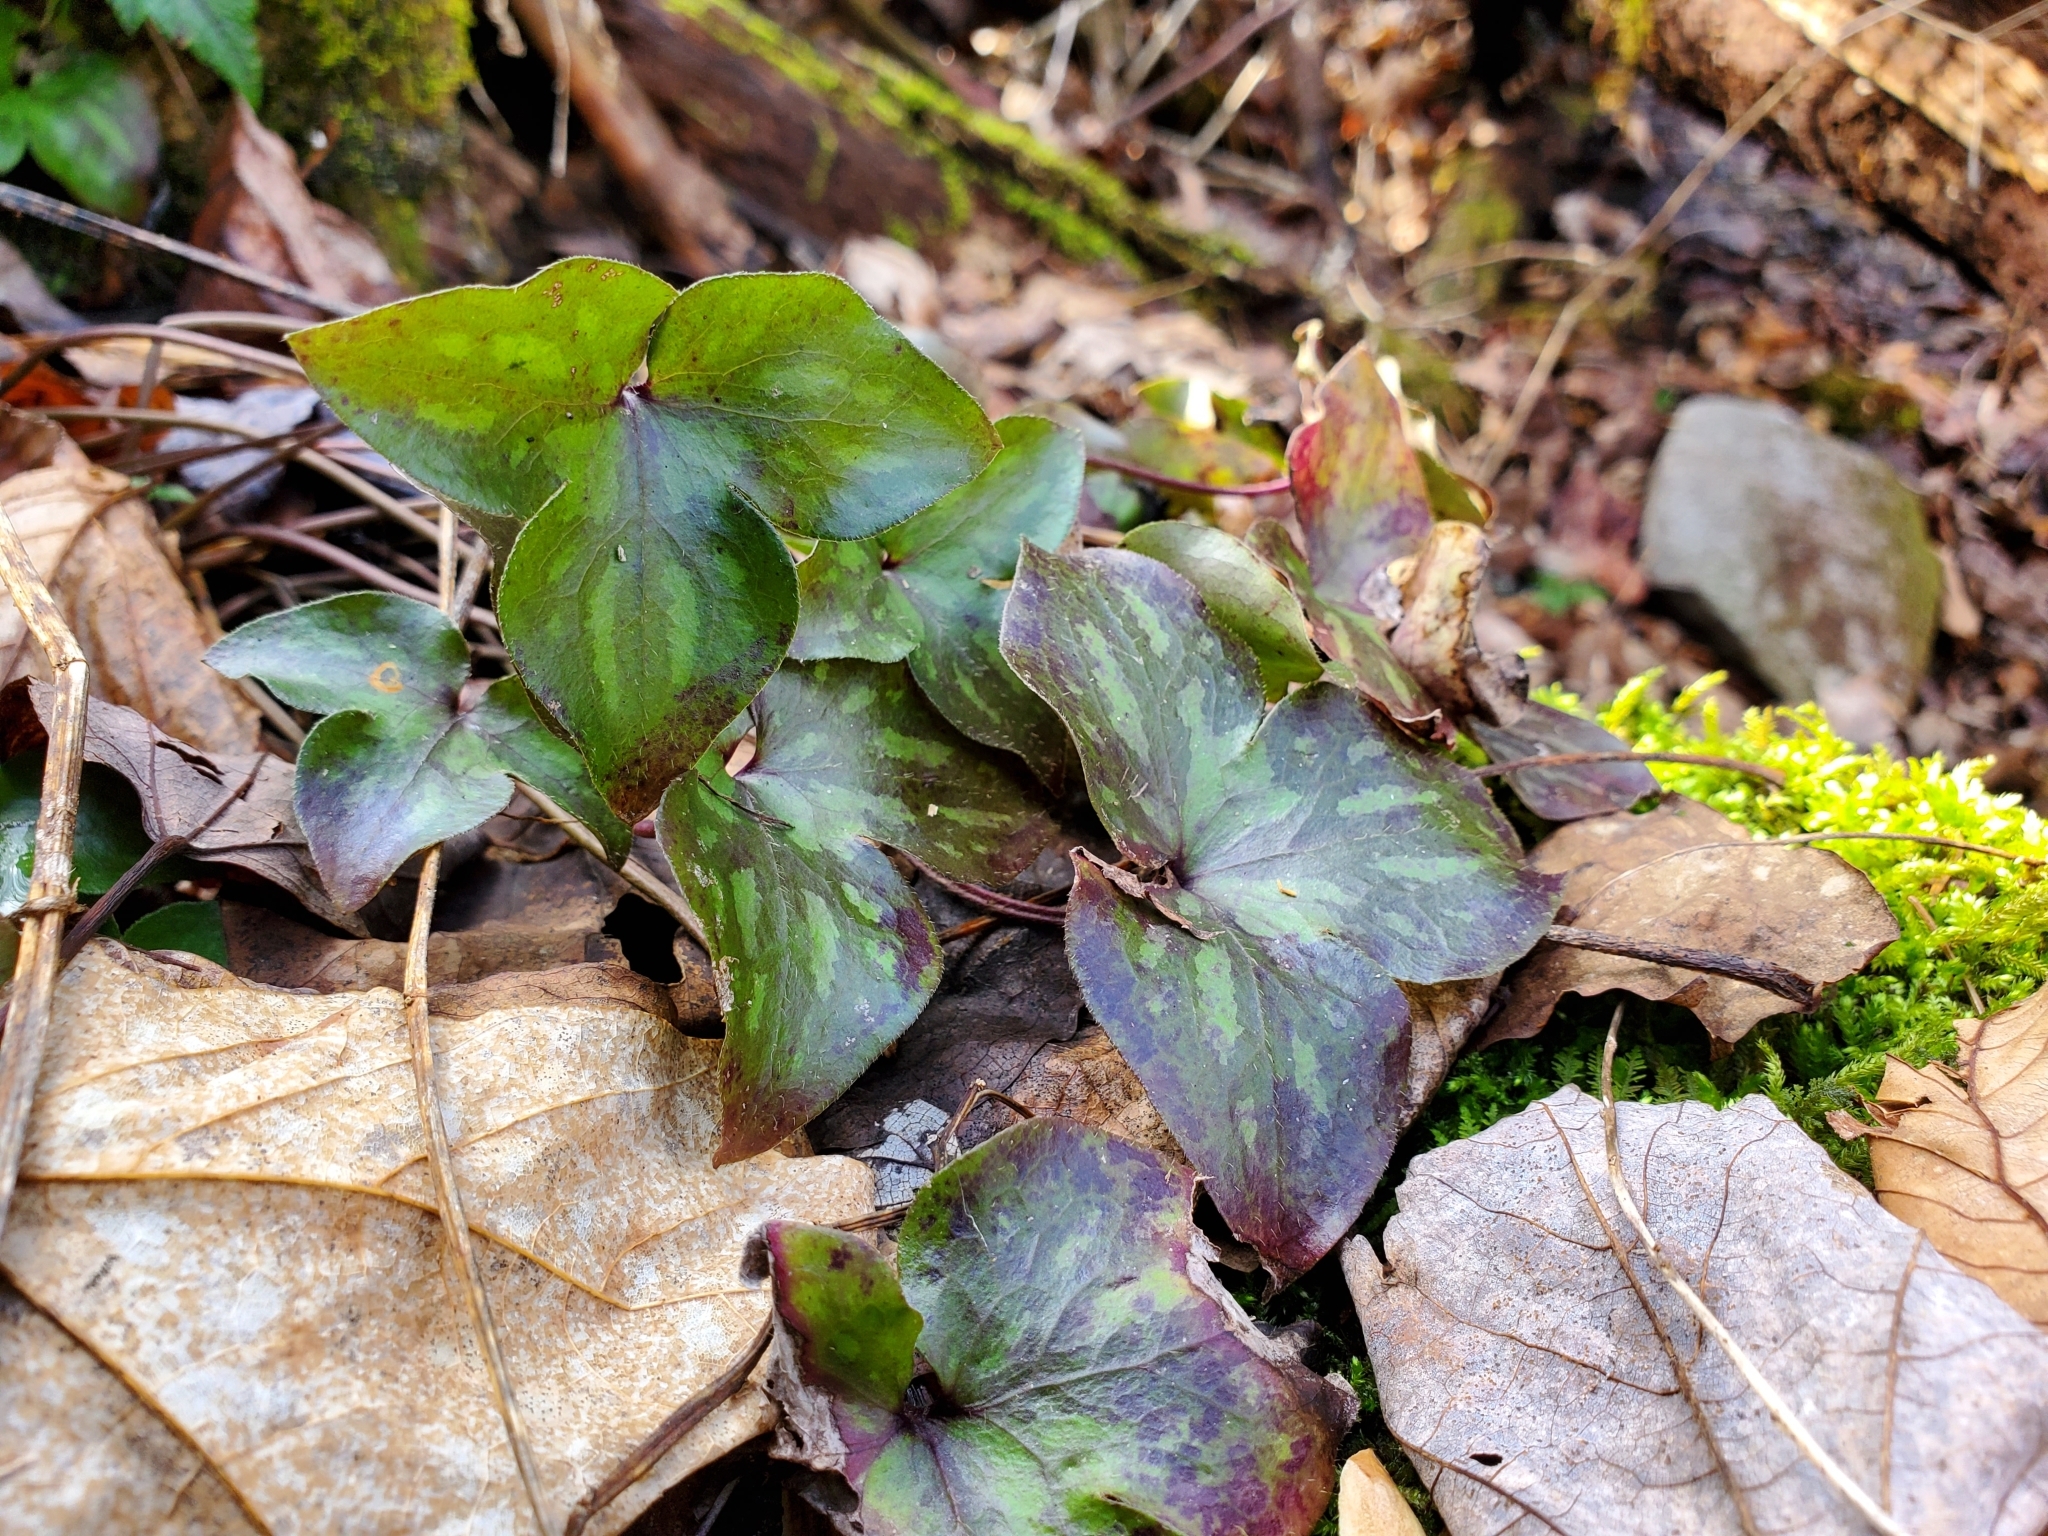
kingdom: Plantae
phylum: Tracheophyta
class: Magnoliopsida
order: Ranunculales
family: Ranunculaceae
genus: Hepatica
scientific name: Hepatica acutiloba
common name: Sharp-lobed hepatica
